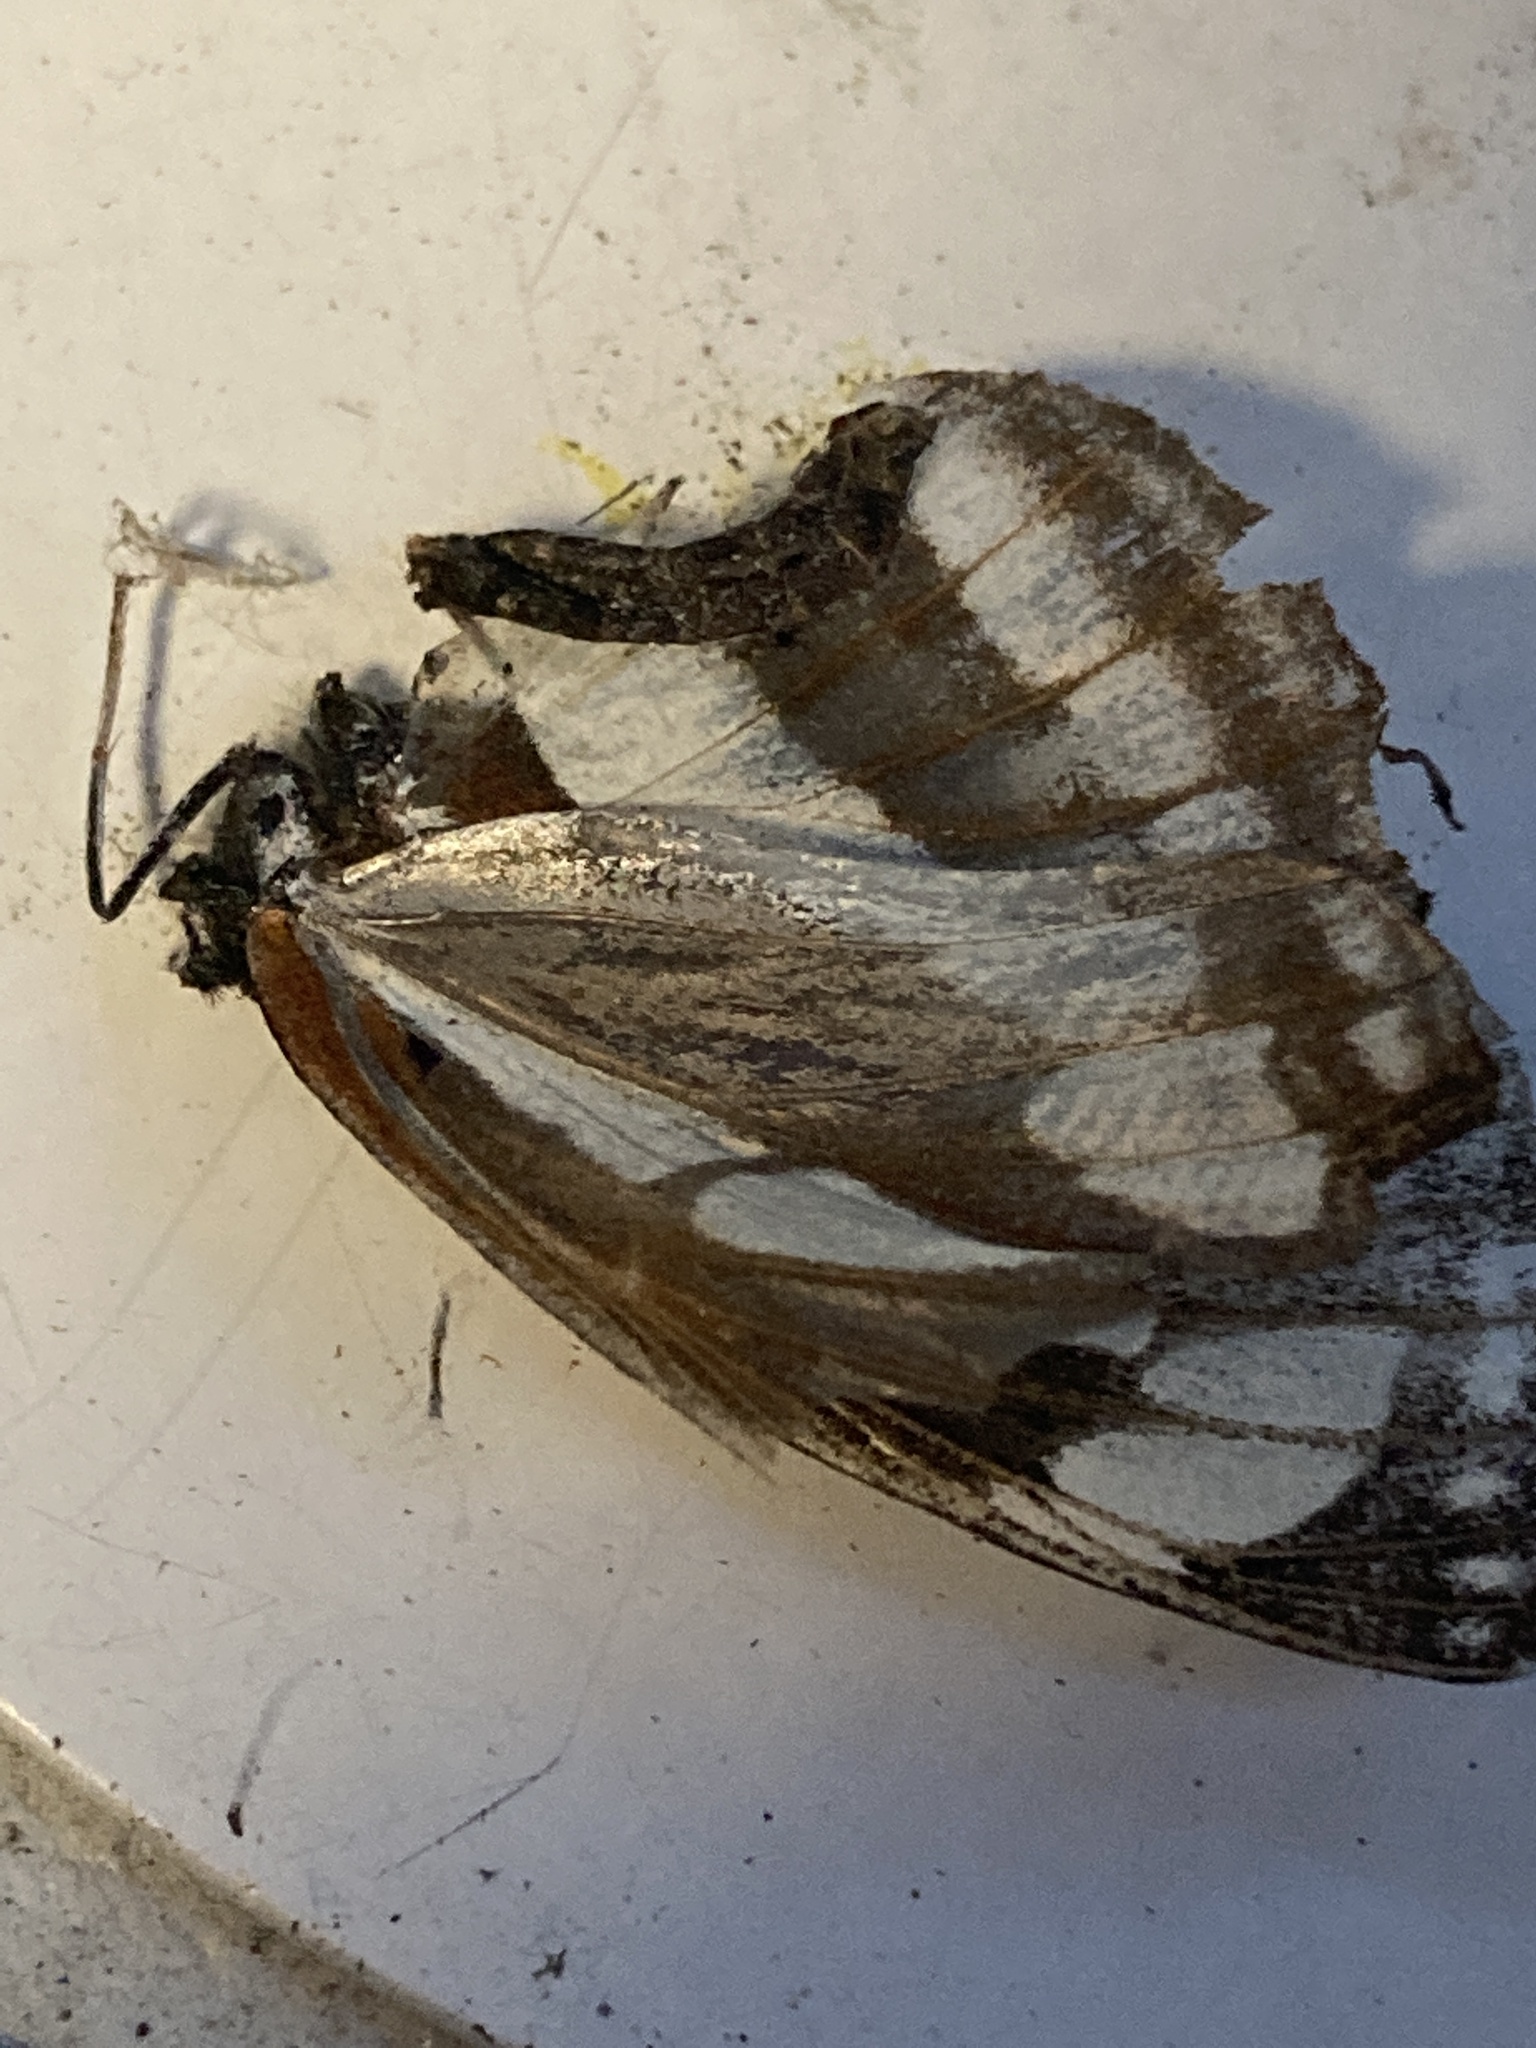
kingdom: Animalia
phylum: Arthropoda
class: Insecta
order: Lepidoptera
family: Nymphalidae
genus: Neptis
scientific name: Neptis sappho
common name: Common glider
